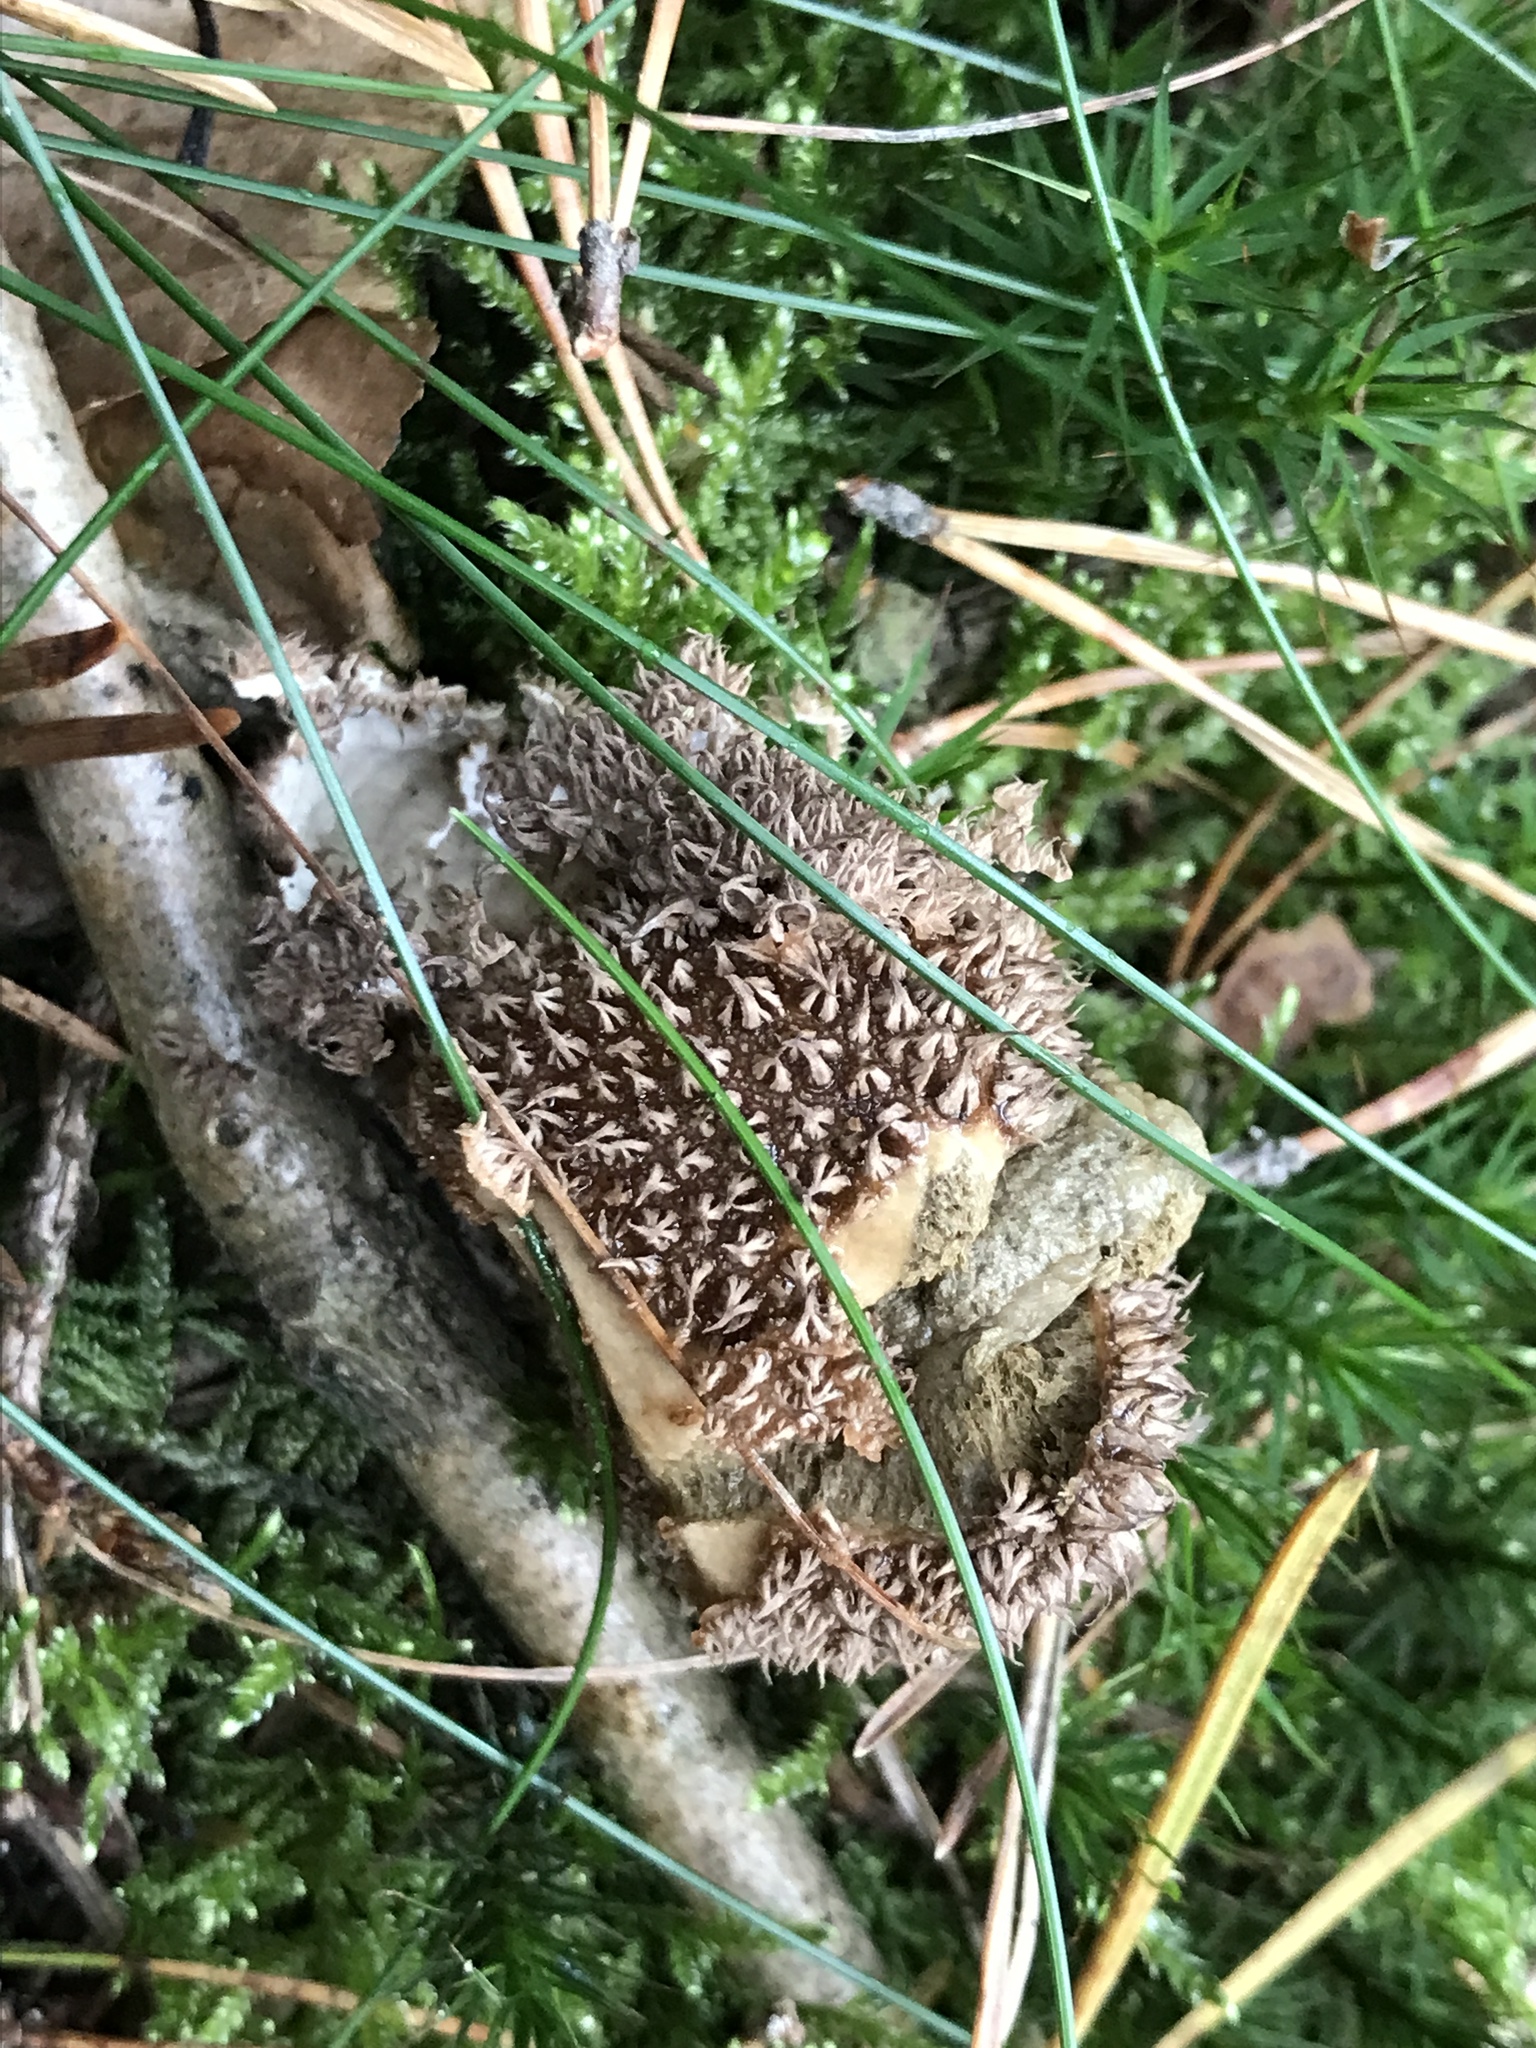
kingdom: Fungi
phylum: Basidiomycota
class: Agaricomycetes
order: Agaricales
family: Lycoperdaceae
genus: Lycoperdon
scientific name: Lycoperdon echinatum
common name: Hedgehog puffball
